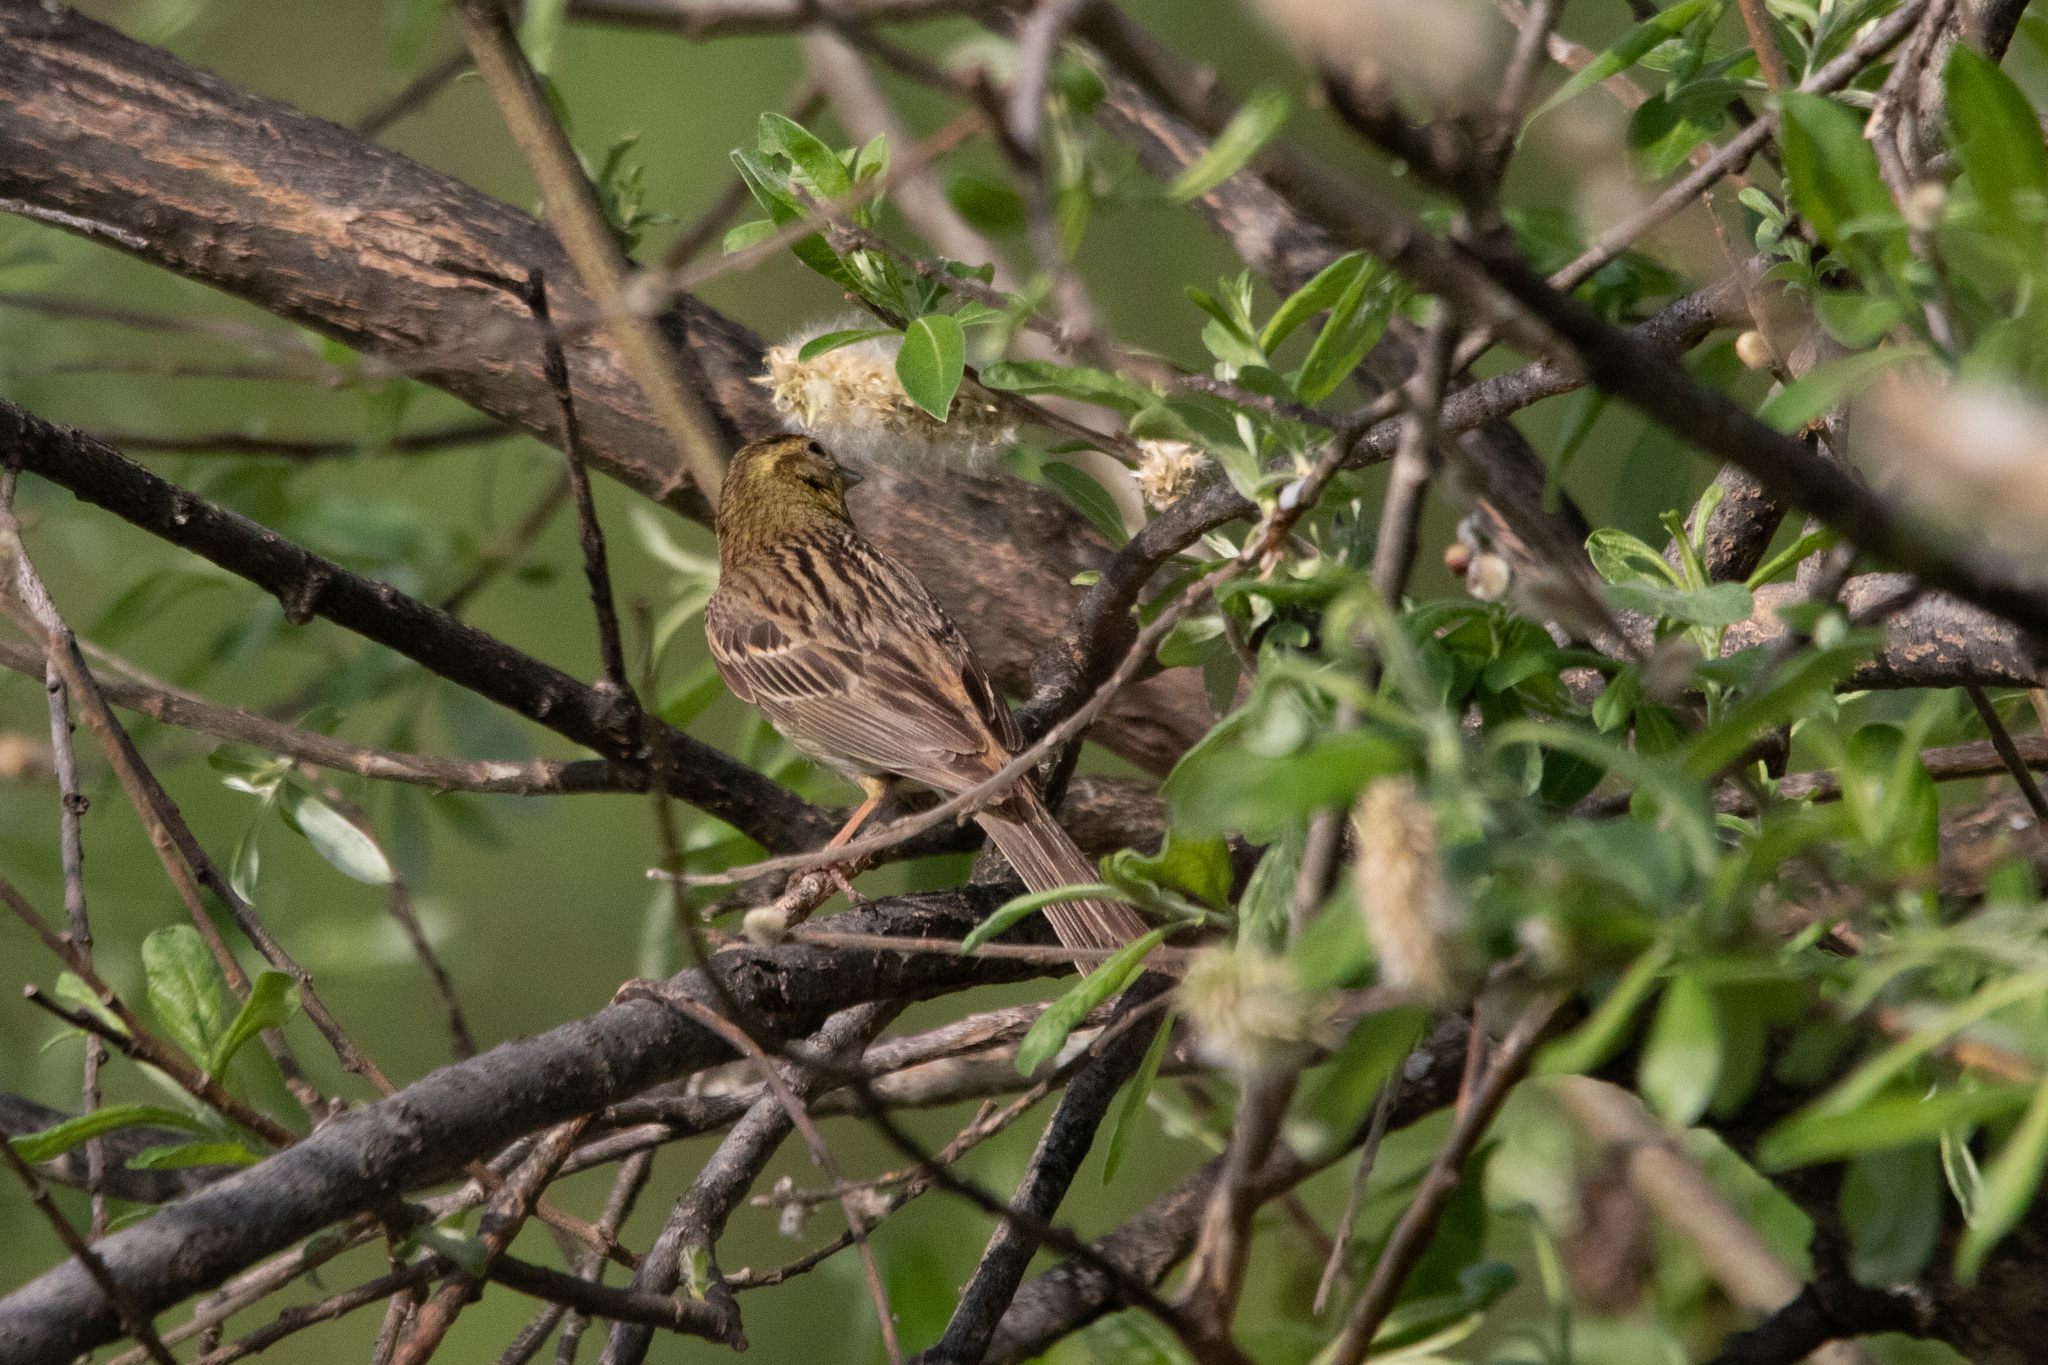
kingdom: Animalia
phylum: Chordata
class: Aves
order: Passeriformes
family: Emberizidae
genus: Emberiza
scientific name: Emberiza citrinella
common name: Yellowhammer
